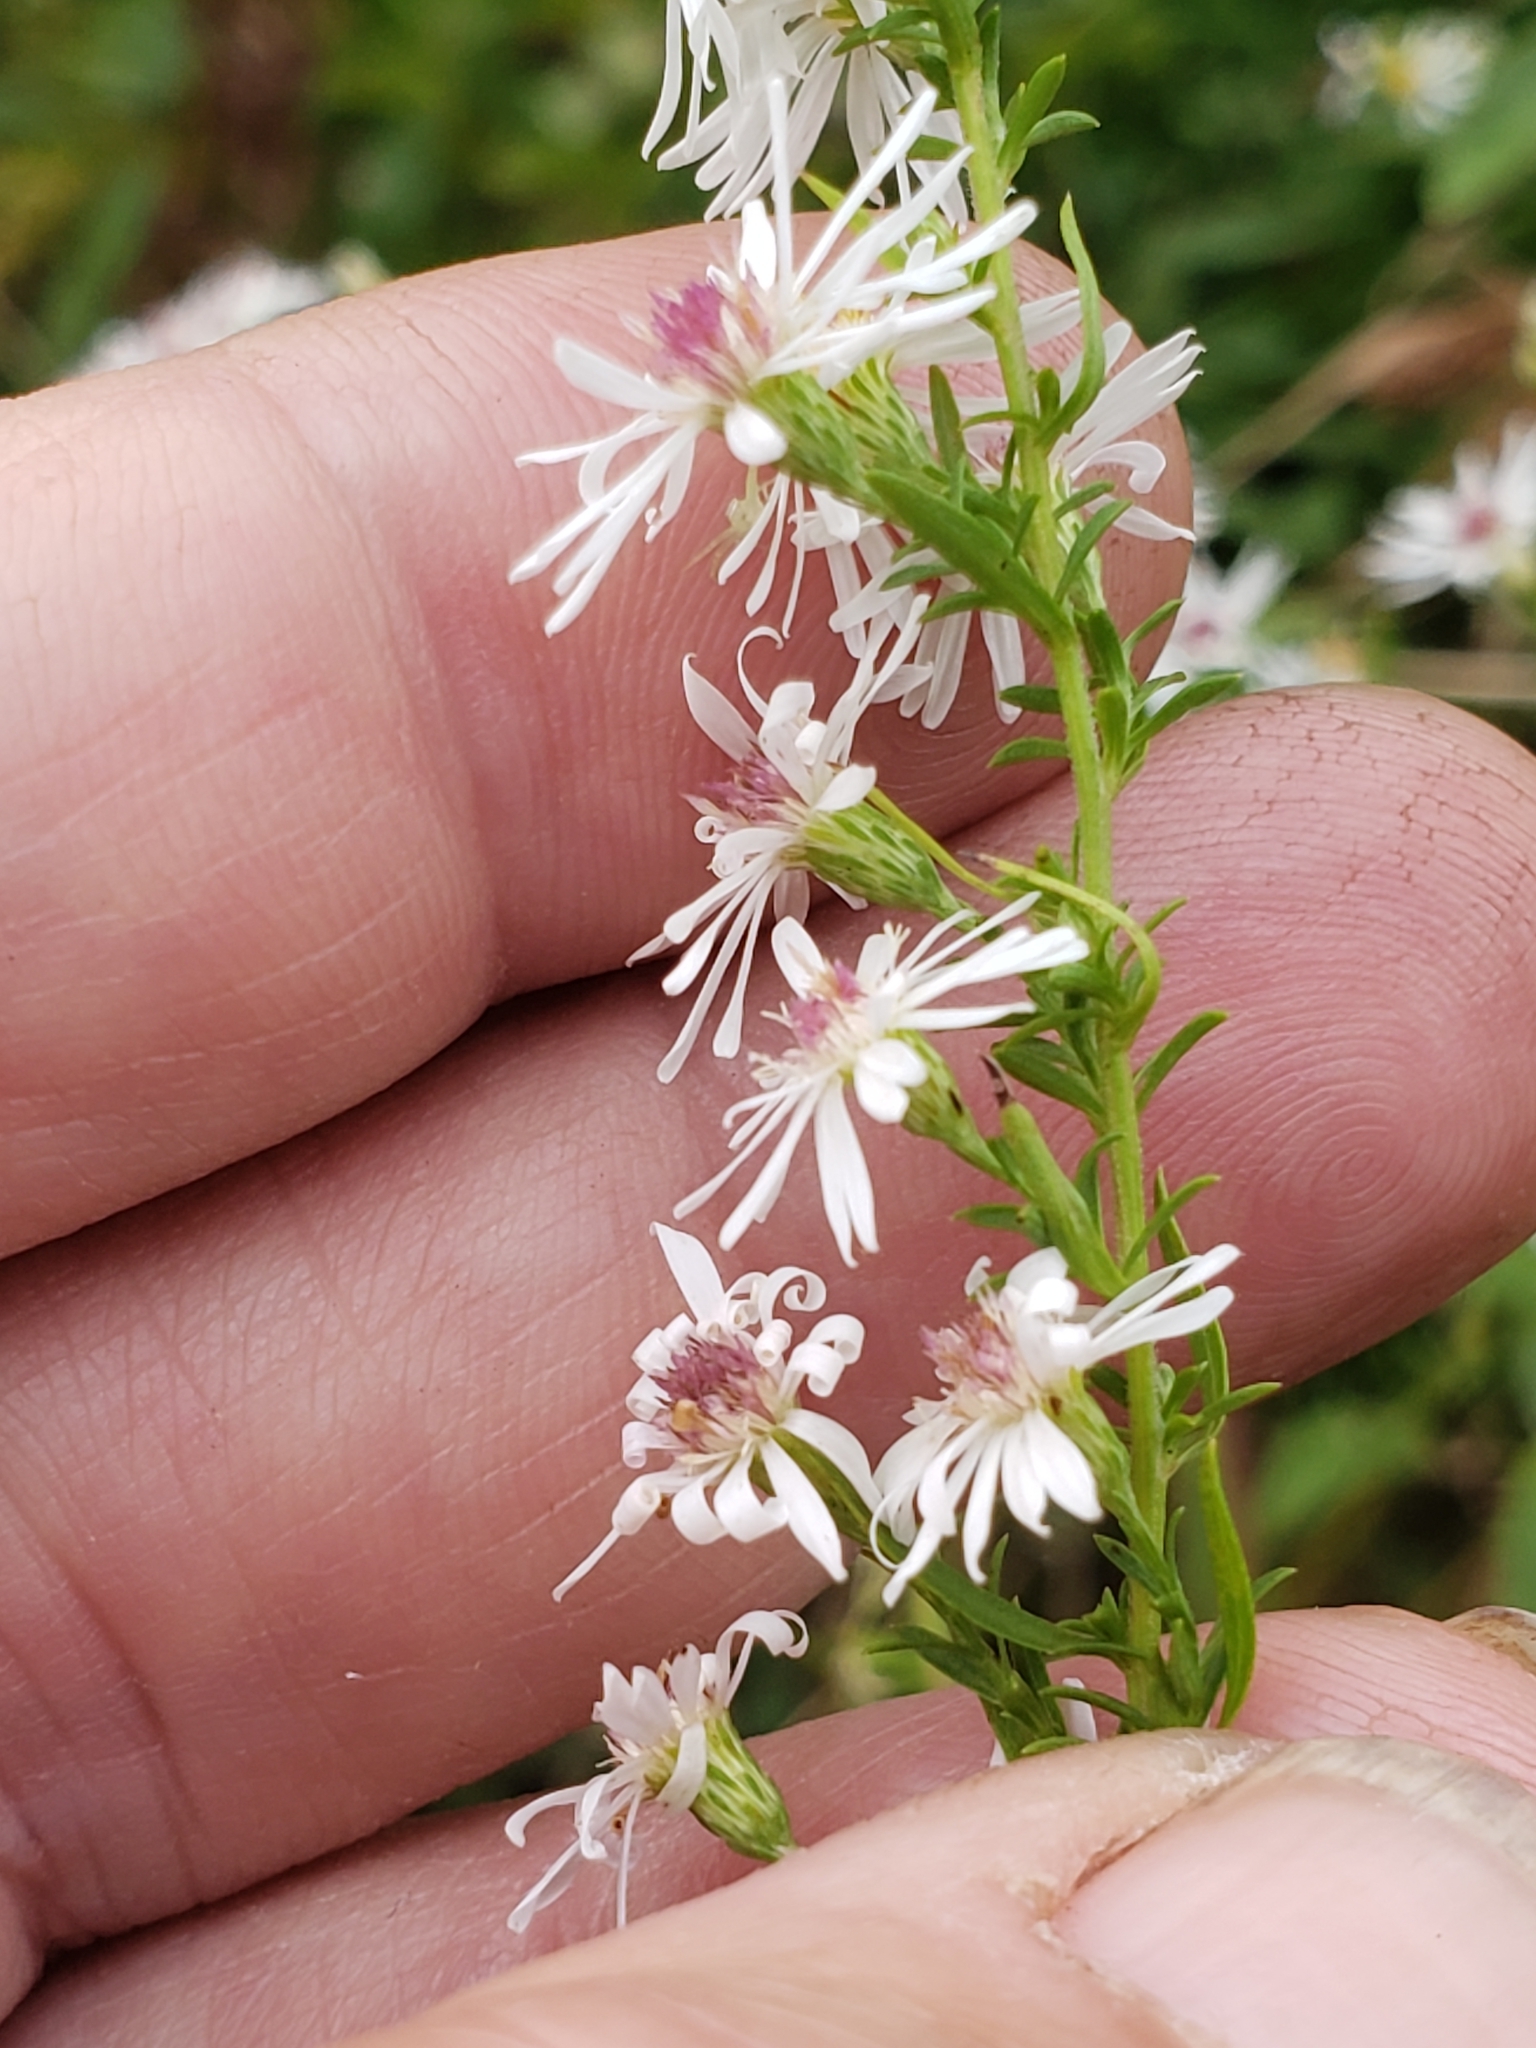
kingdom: Plantae
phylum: Tracheophyta
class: Magnoliopsida
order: Asterales
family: Asteraceae
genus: Symphyotrichum
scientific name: Symphyotrichum racemosum
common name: Small white aster
